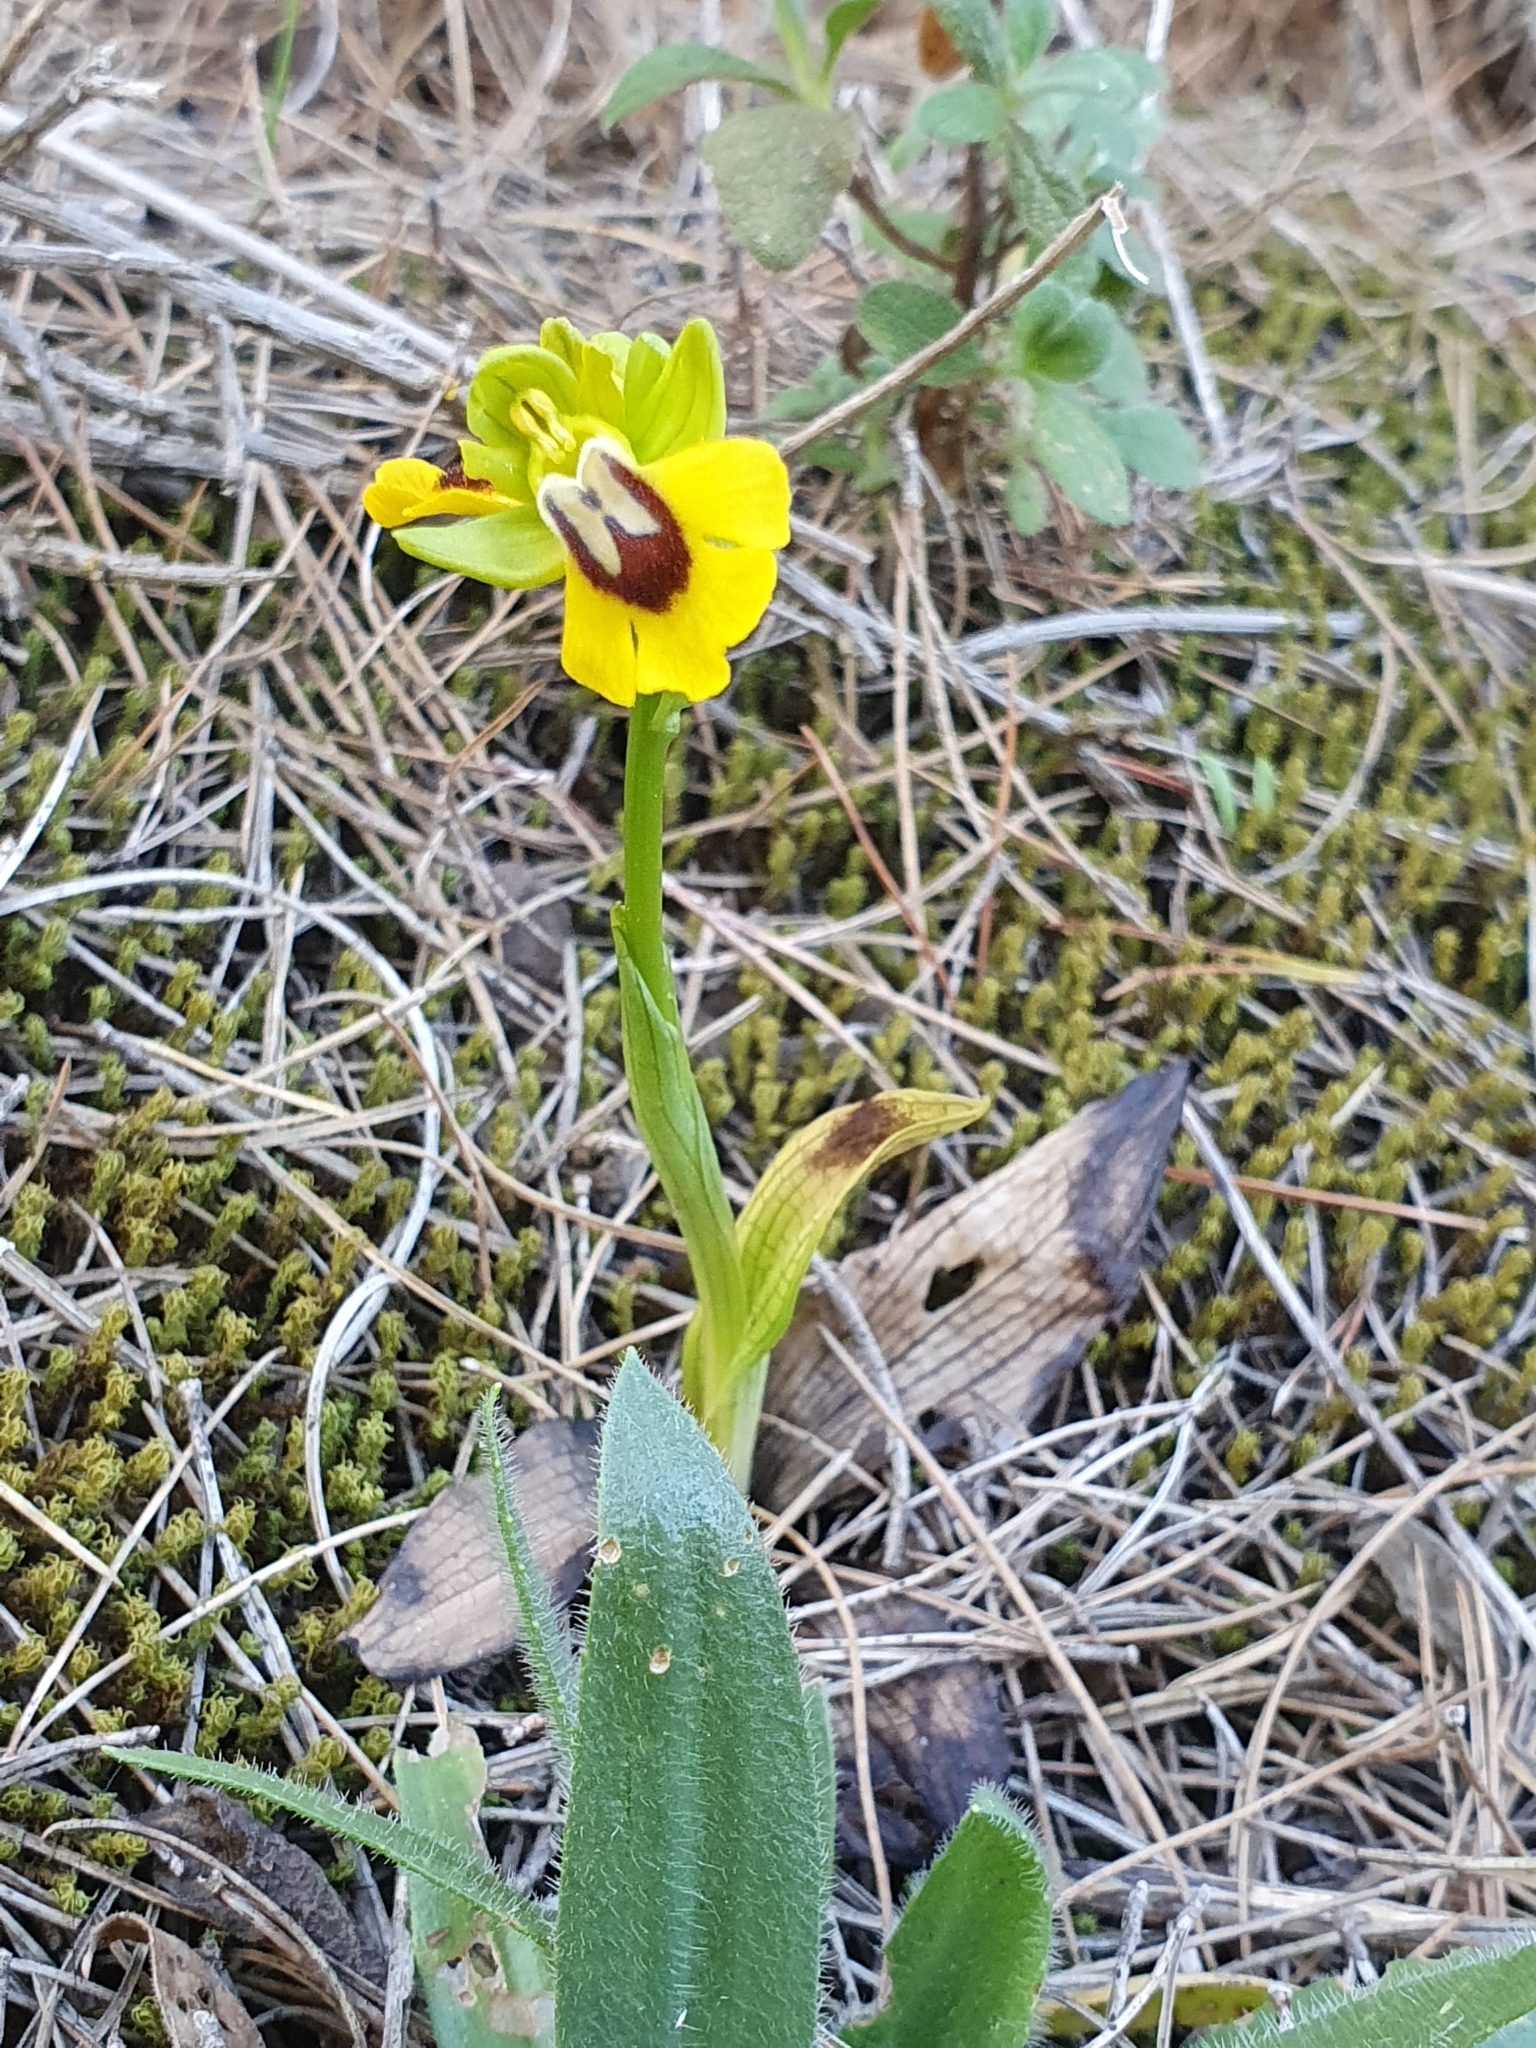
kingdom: Plantae
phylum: Tracheophyta
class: Liliopsida
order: Asparagales
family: Orchidaceae
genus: Ophrys
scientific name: Ophrys lutea
